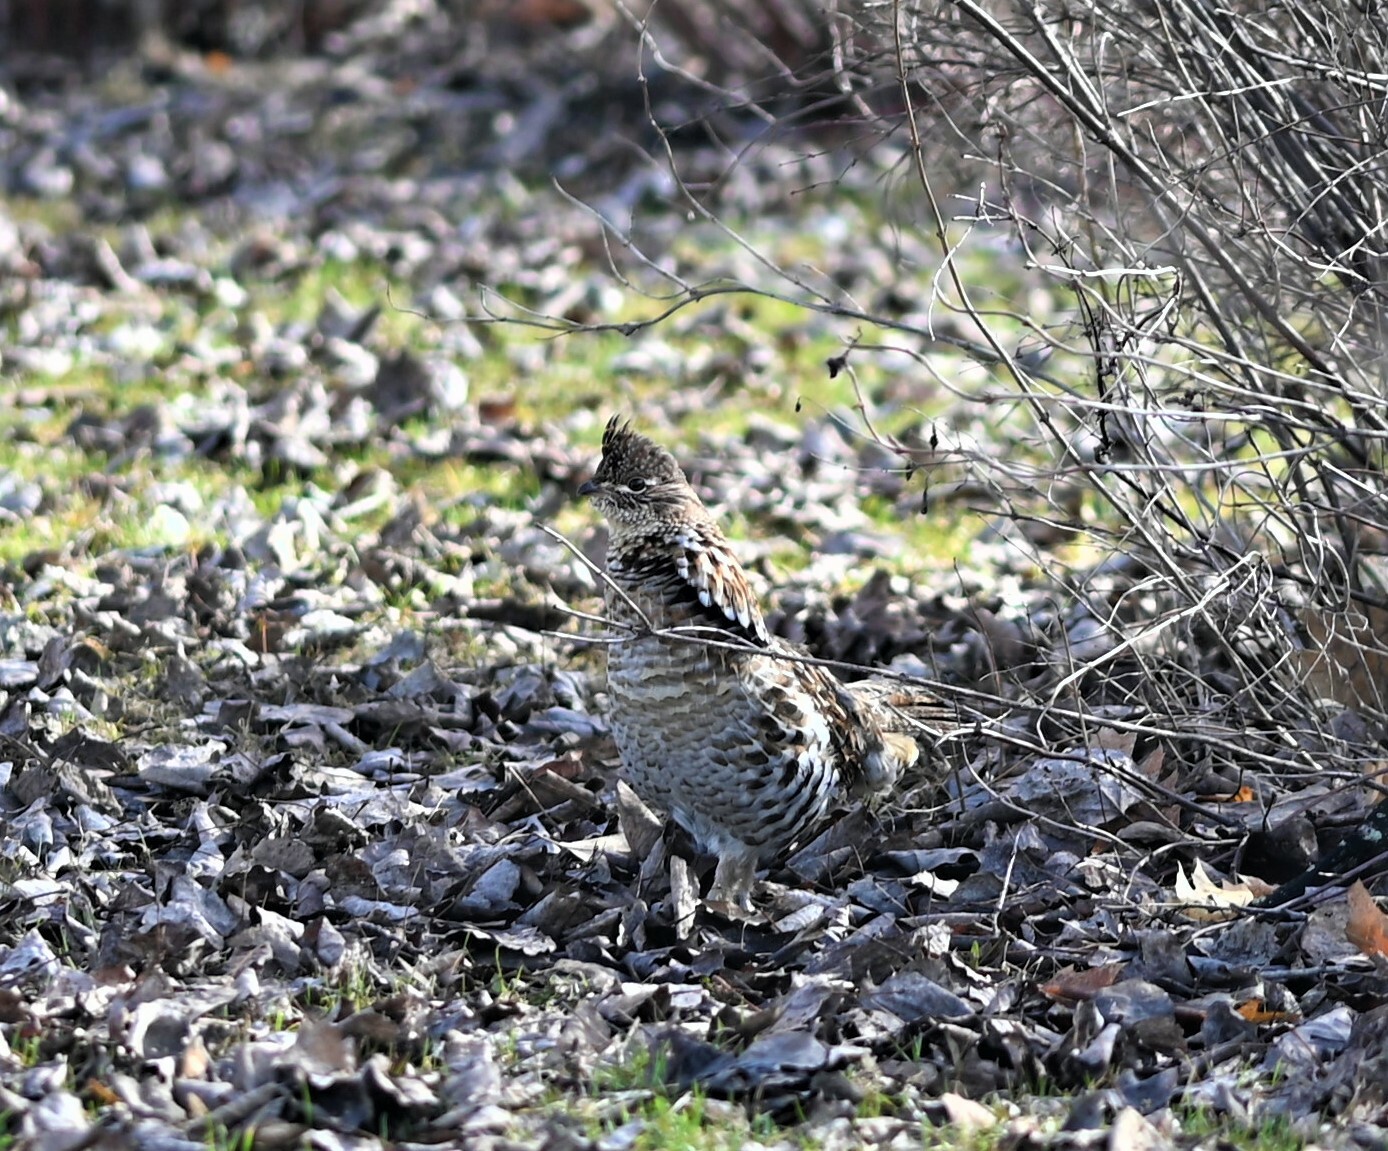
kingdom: Animalia
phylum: Chordata
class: Aves
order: Galliformes
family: Phasianidae
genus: Bonasa
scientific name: Bonasa umbellus
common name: Ruffed grouse
